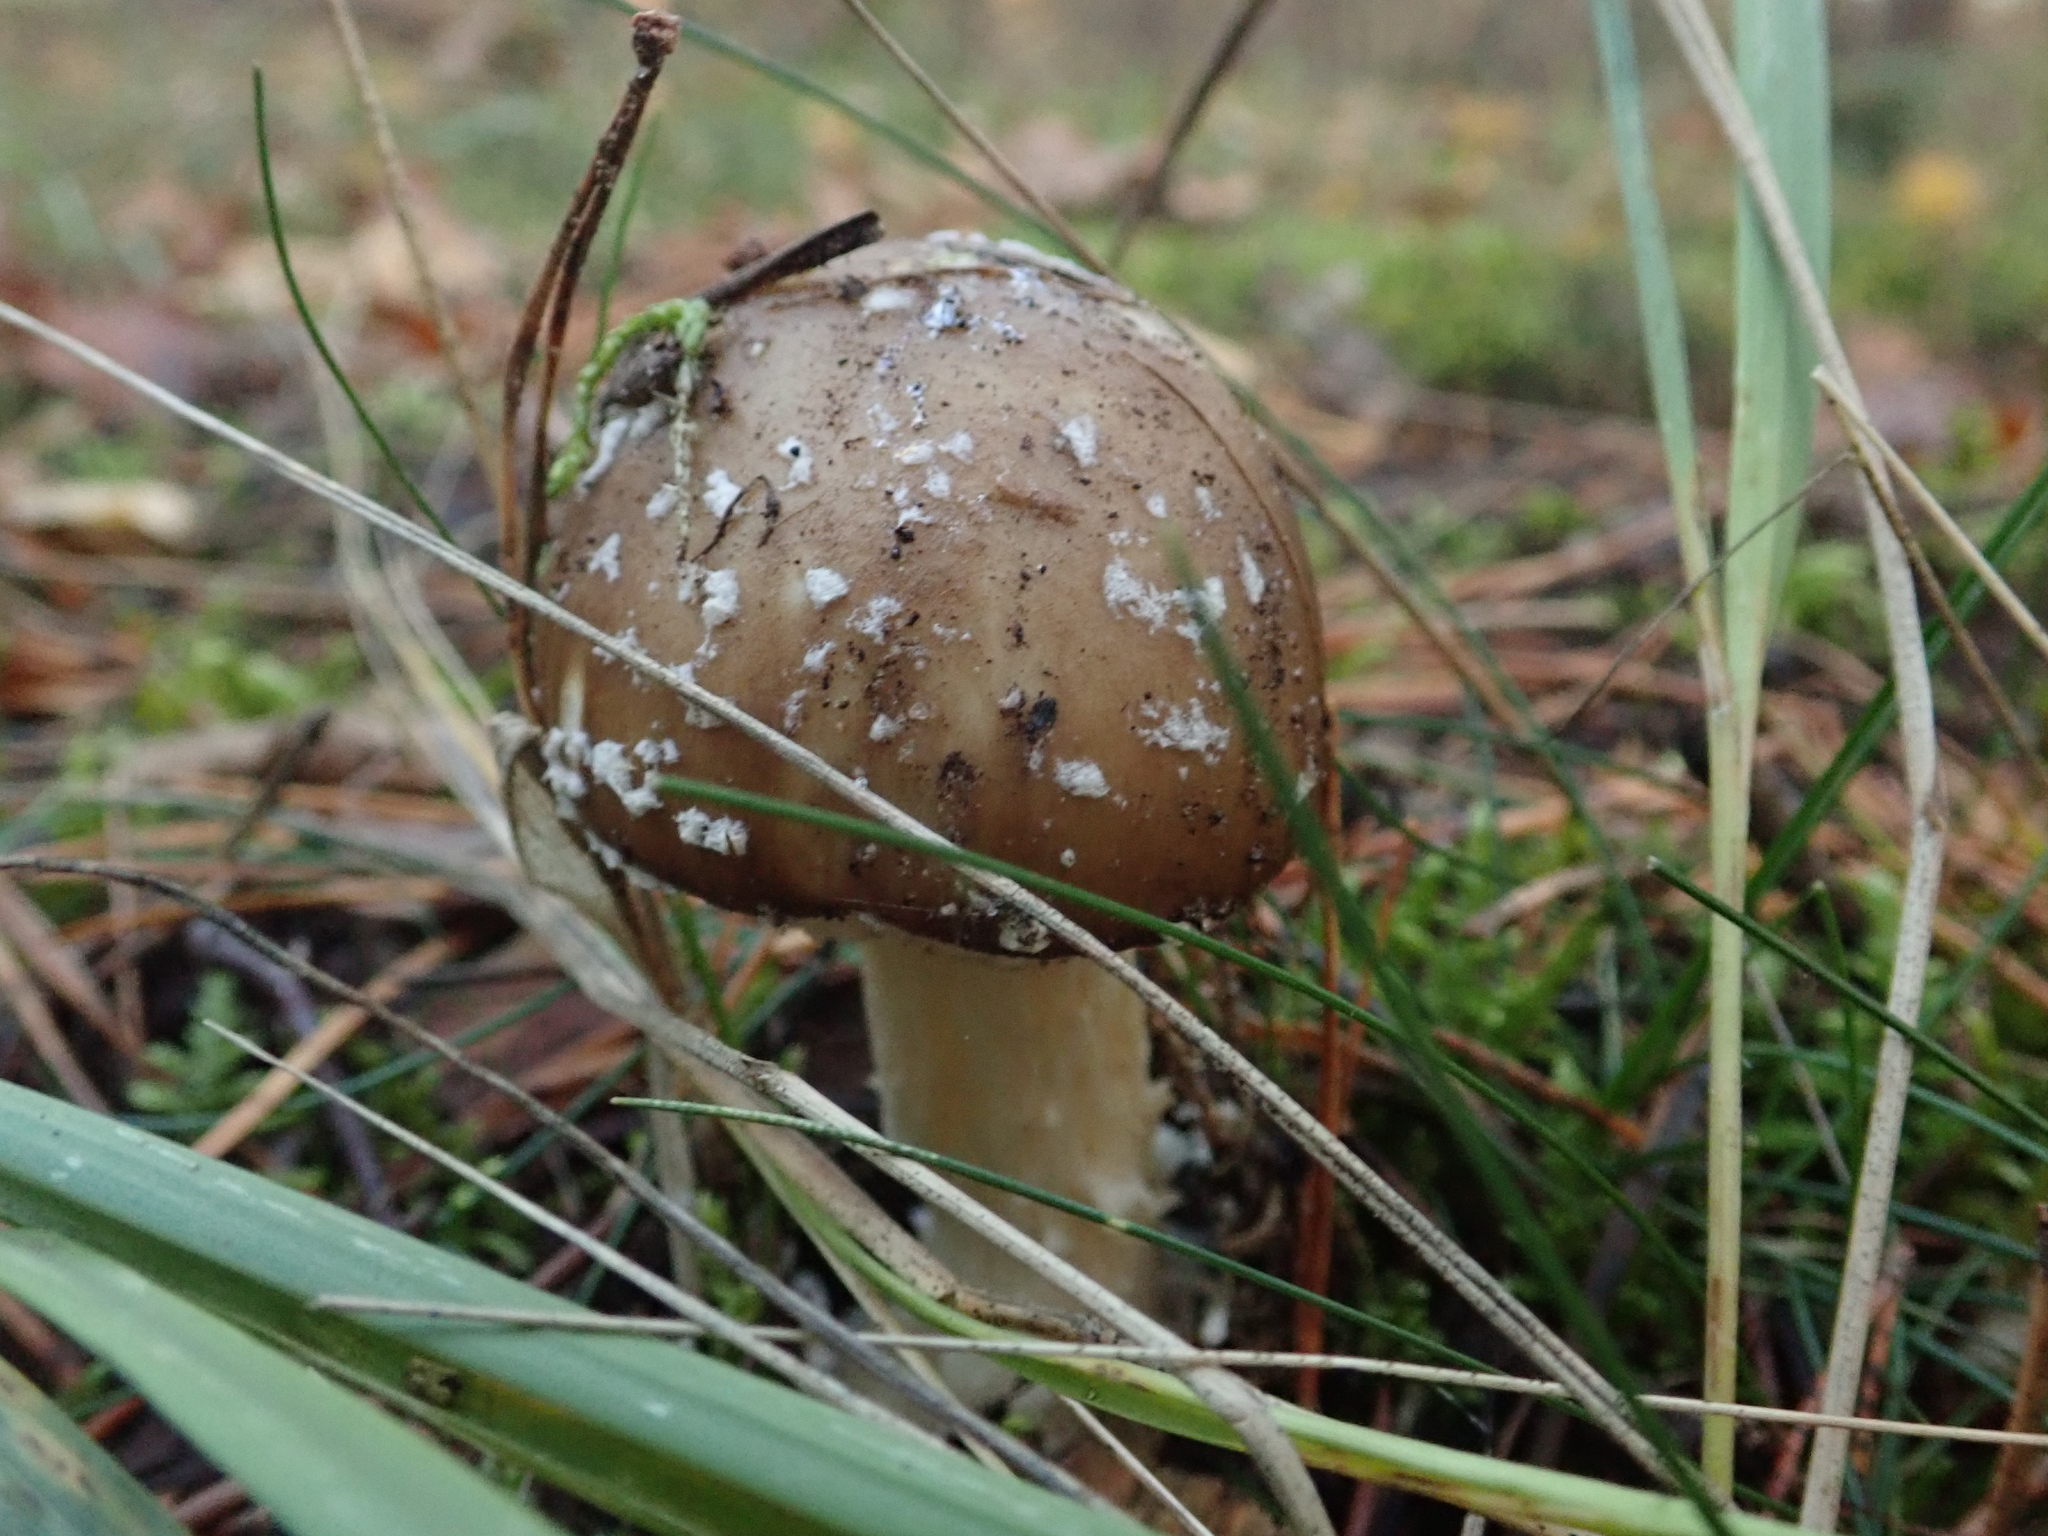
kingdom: Fungi
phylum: Basidiomycota
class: Agaricomycetes
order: Agaricales
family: Amanitaceae
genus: Amanita
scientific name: Amanita pantherina
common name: Panthercap
